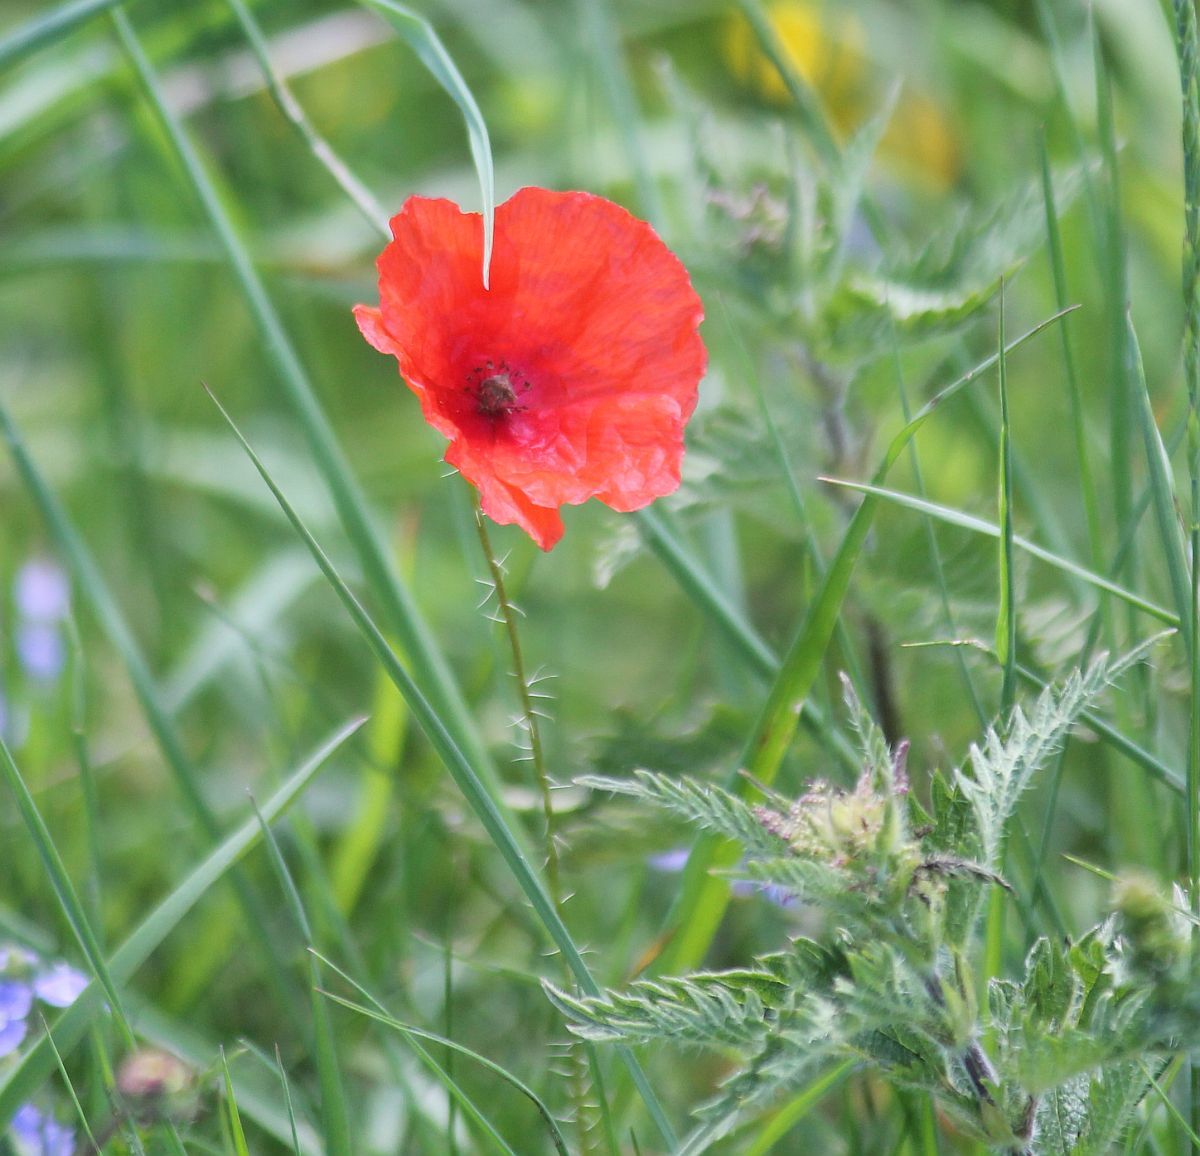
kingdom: Plantae
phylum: Tracheophyta
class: Magnoliopsida
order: Ranunculales
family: Papaveraceae
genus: Papaver
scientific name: Papaver rhoeas
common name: Corn poppy
